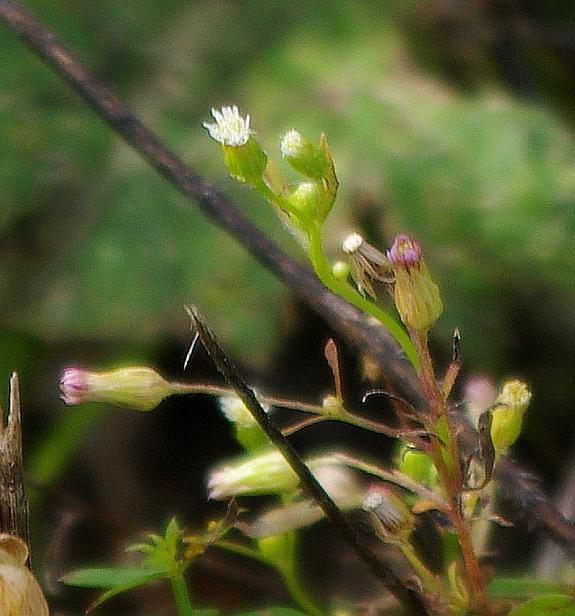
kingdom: Plantae
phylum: Tracheophyta
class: Magnoliopsida
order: Asterales
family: Asteraceae
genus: Erigeron
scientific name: Erigeron canadensis
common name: Canadian fleabane
